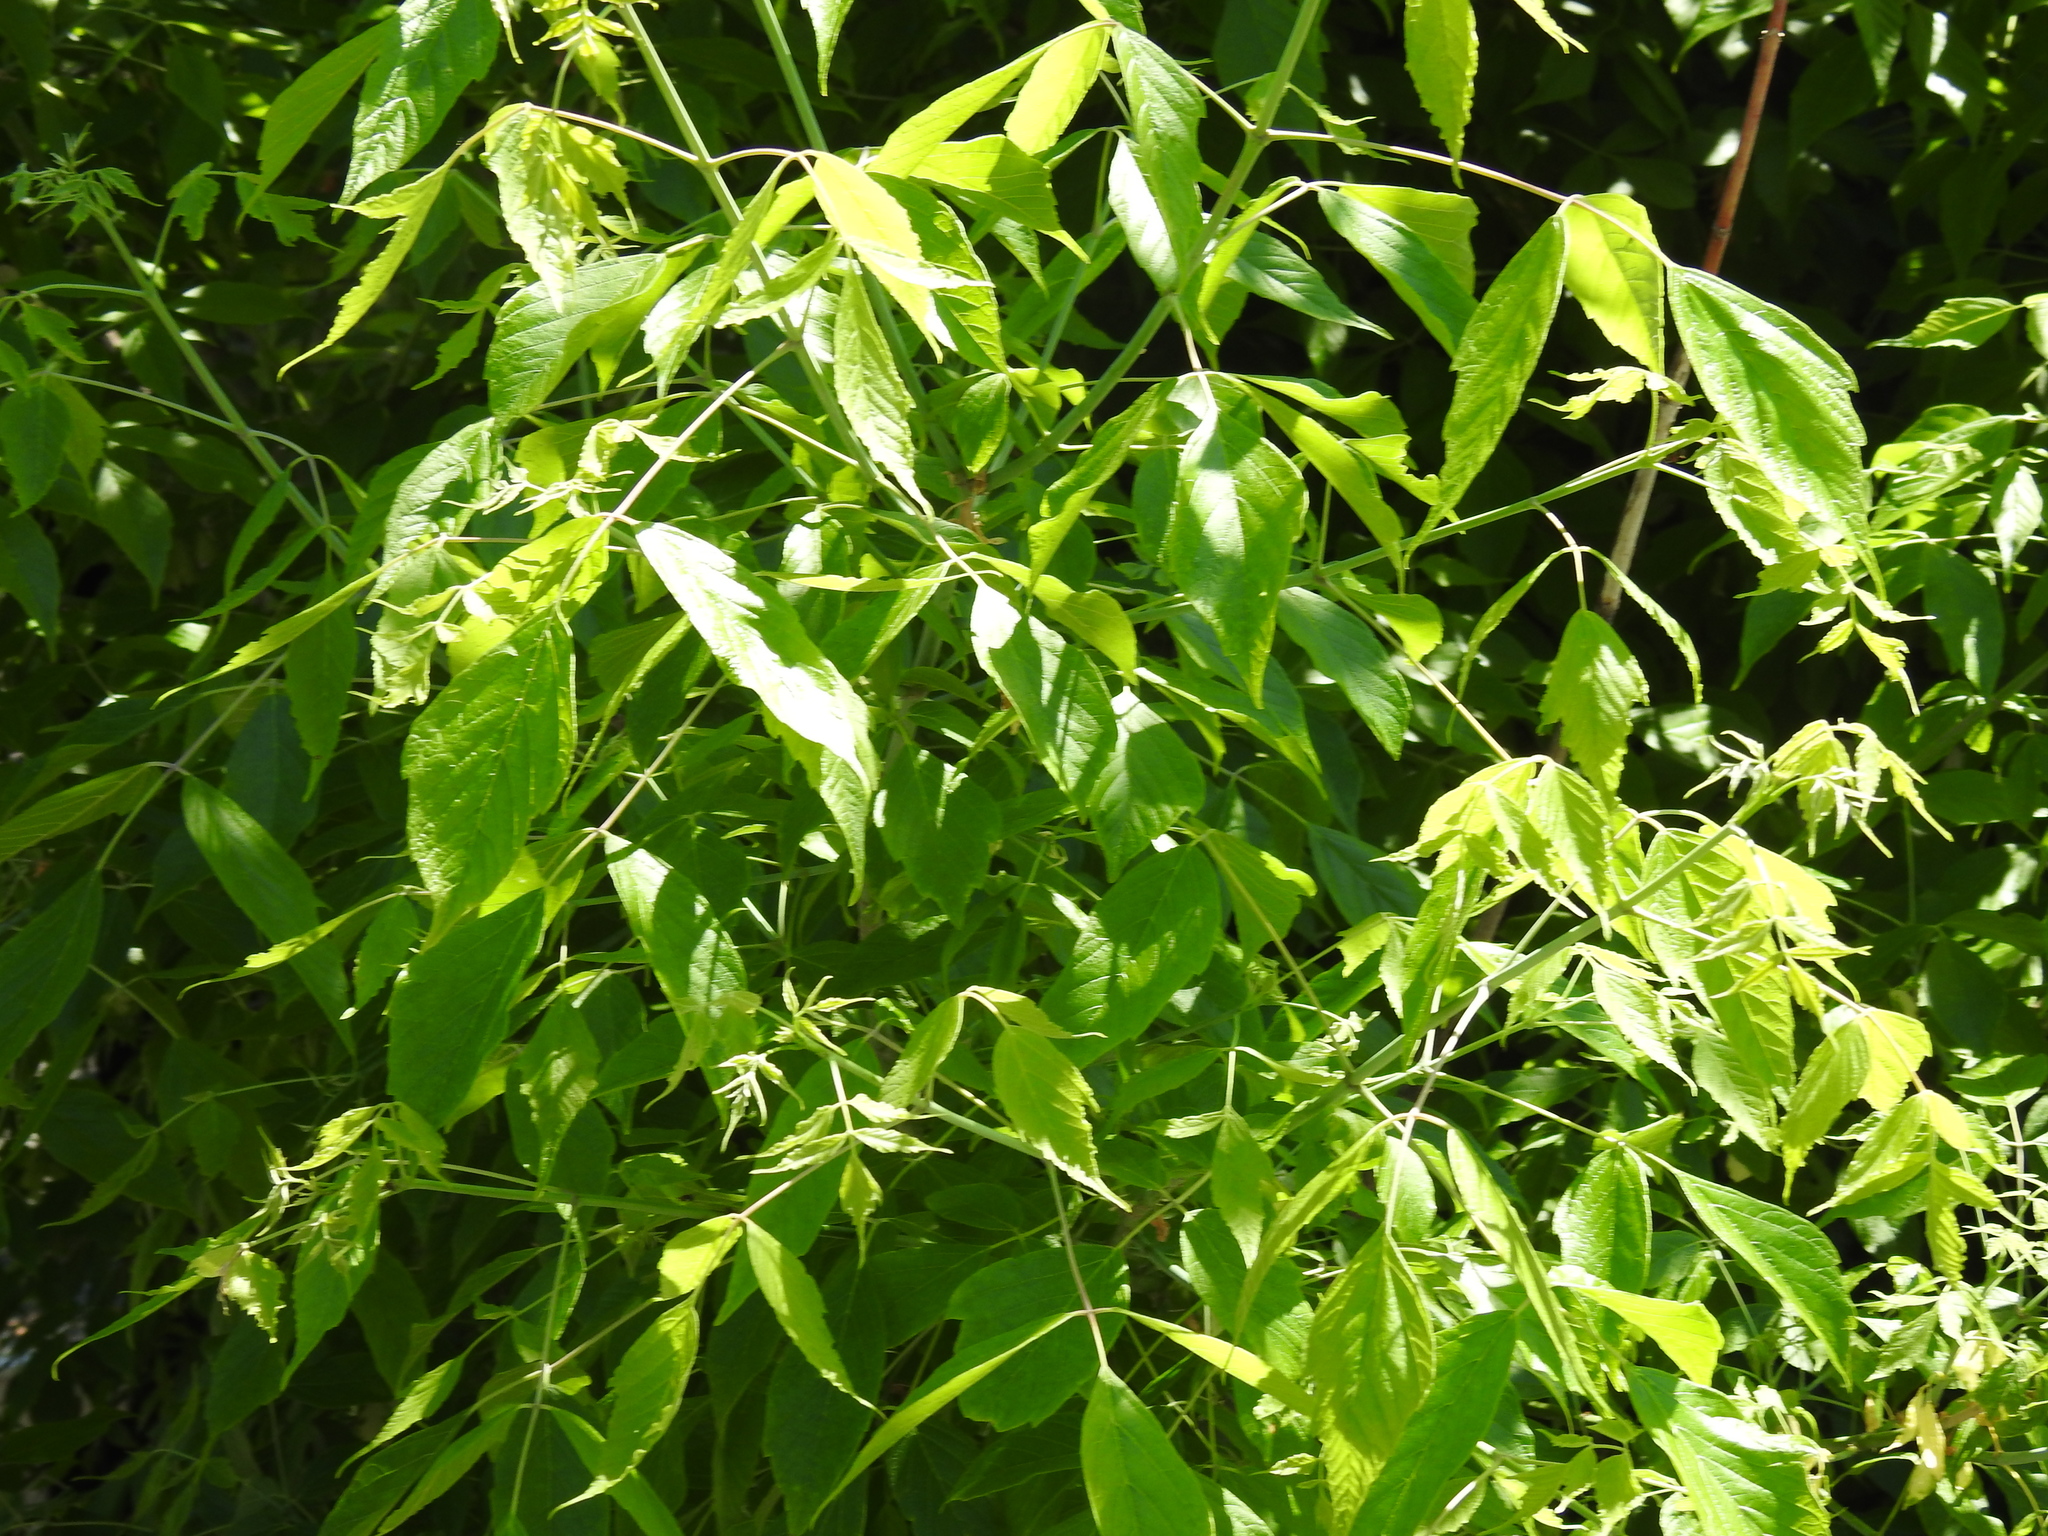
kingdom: Plantae
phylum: Tracheophyta
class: Magnoliopsida
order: Sapindales
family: Sapindaceae
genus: Acer
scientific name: Acer negundo
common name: Ashleaf maple
